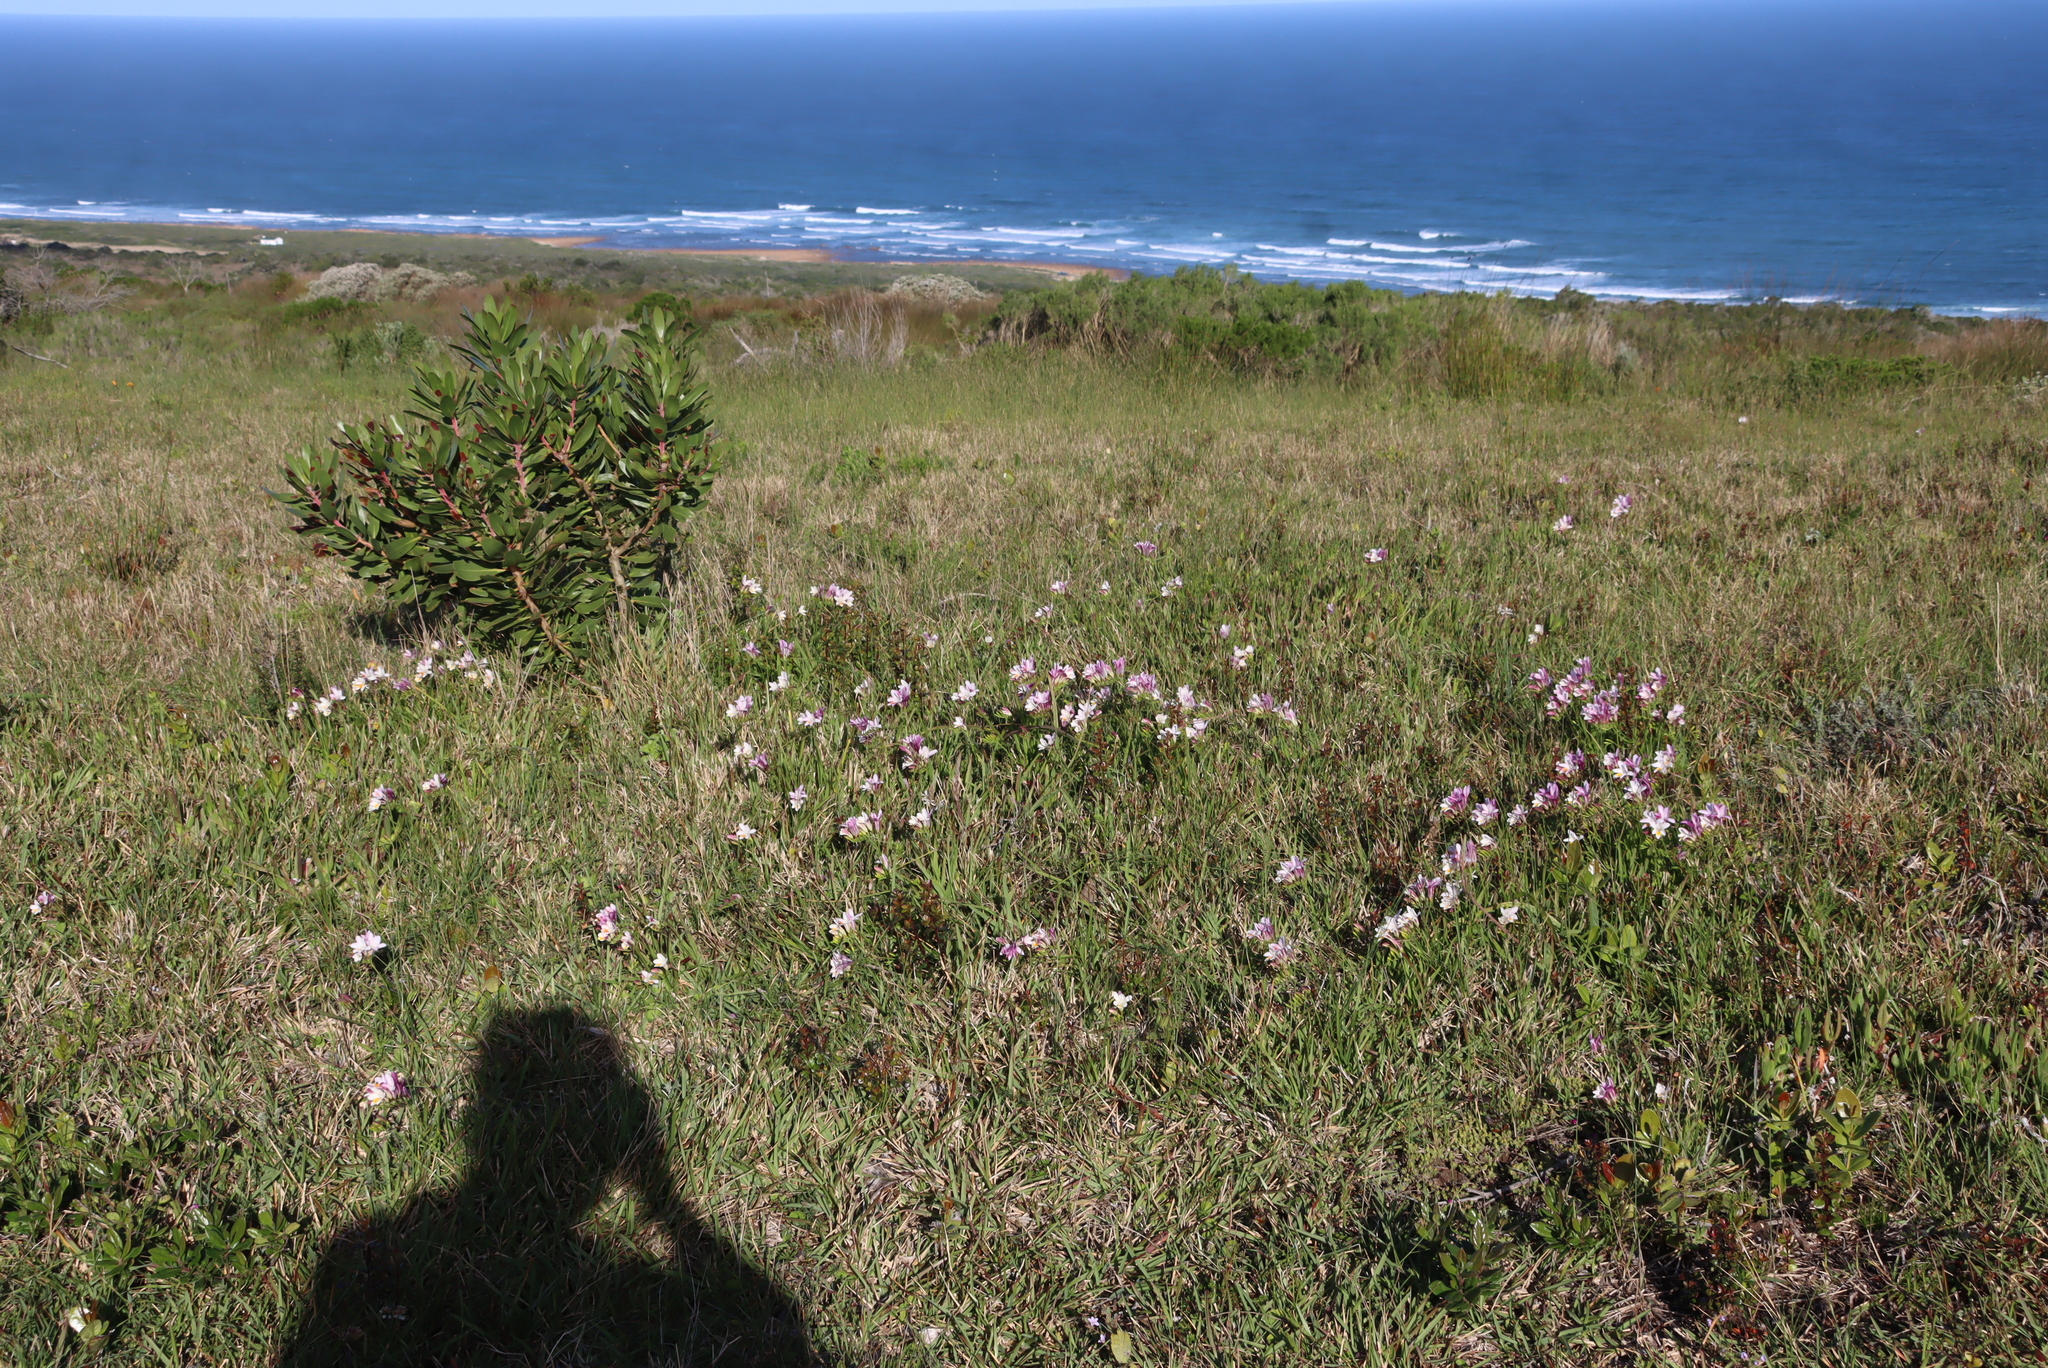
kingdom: Plantae
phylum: Tracheophyta
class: Liliopsida
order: Asparagales
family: Iridaceae
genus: Freesia
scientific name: Freesia leichtlinii
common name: Freesia
